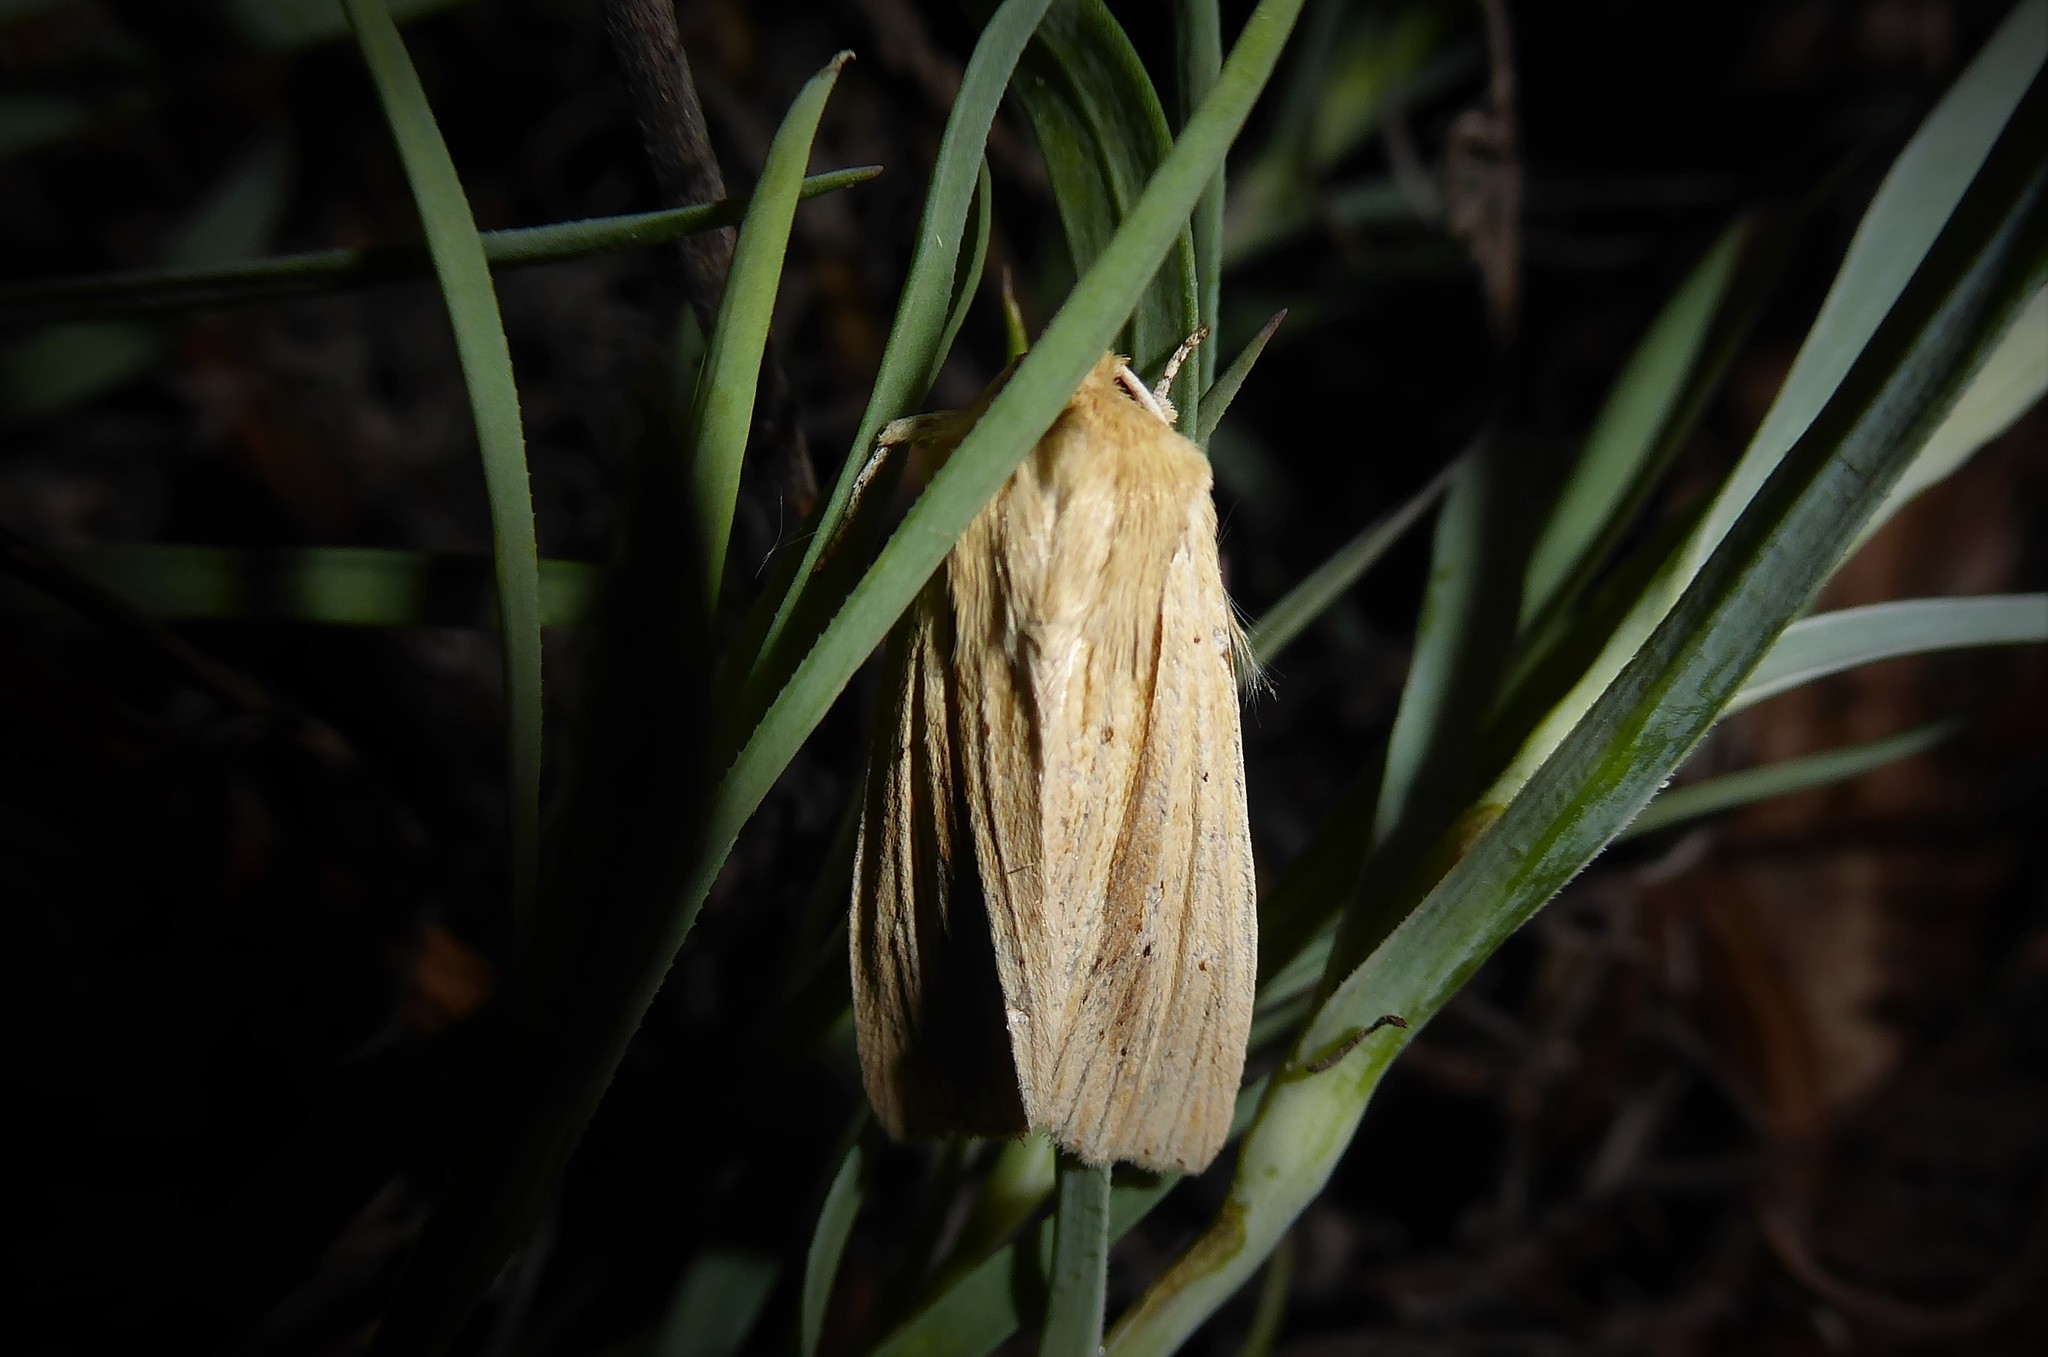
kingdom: Animalia
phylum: Arthropoda
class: Insecta
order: Lepidoptera
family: Noctuidae
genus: Ichneutica
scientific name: Ichneutica semivittata
